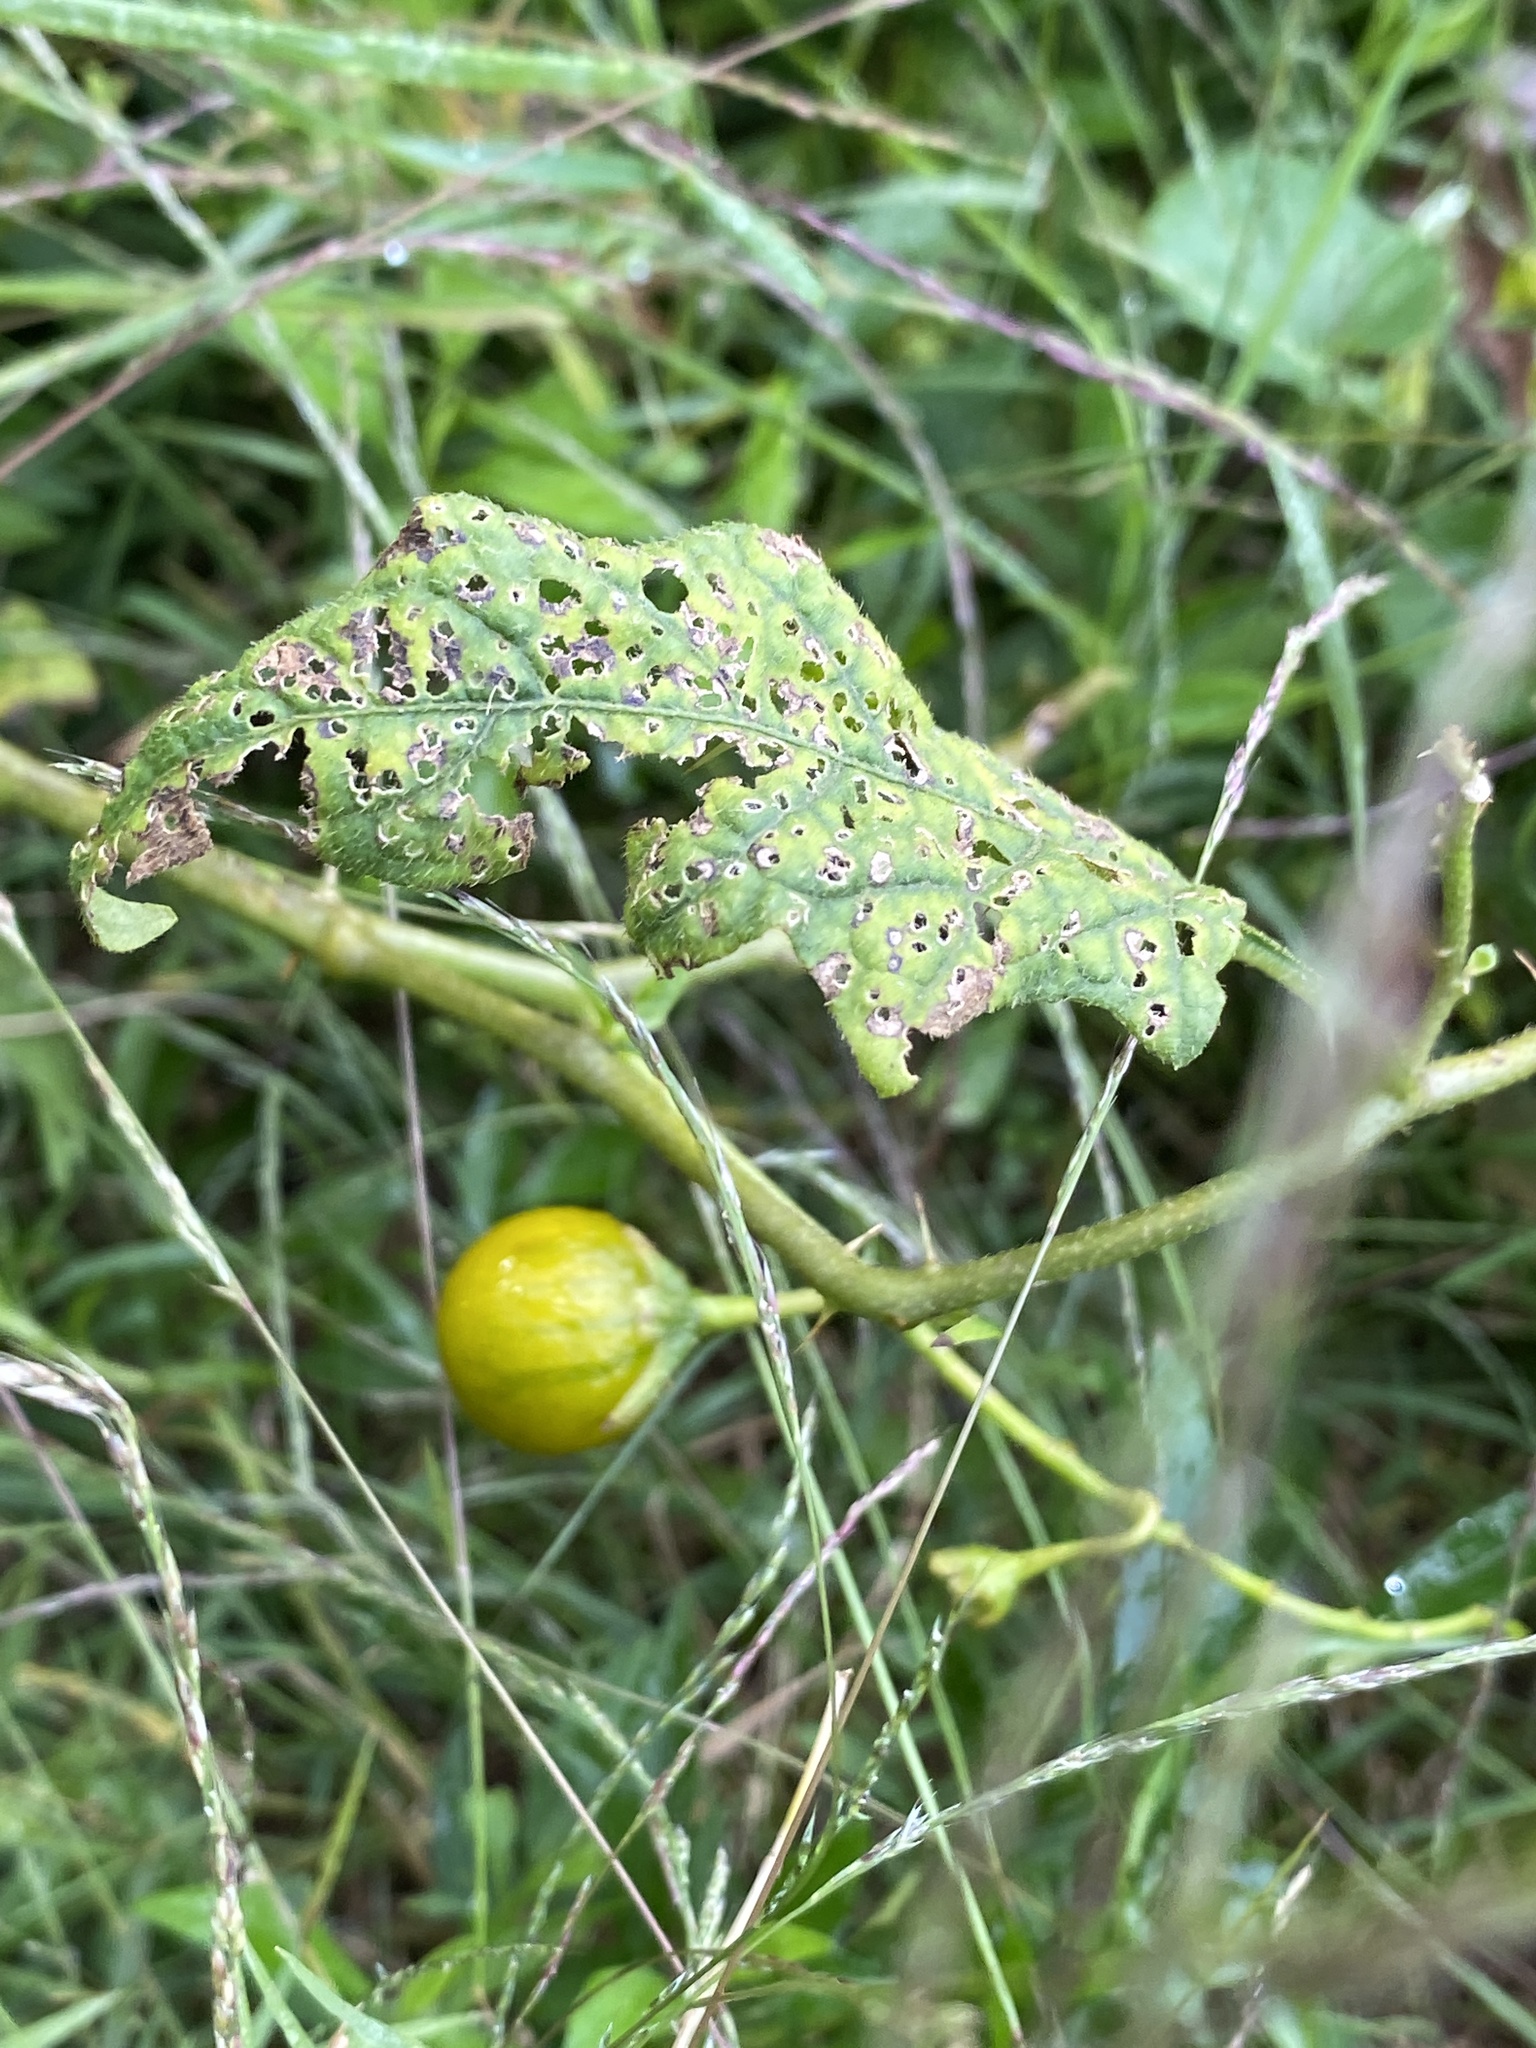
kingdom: Plantae
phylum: Tracheophyta
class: Magnoliopsida
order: Solanales
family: Solanaceae
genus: Solanum
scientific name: Solanum carolinense
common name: Horse-nettle
